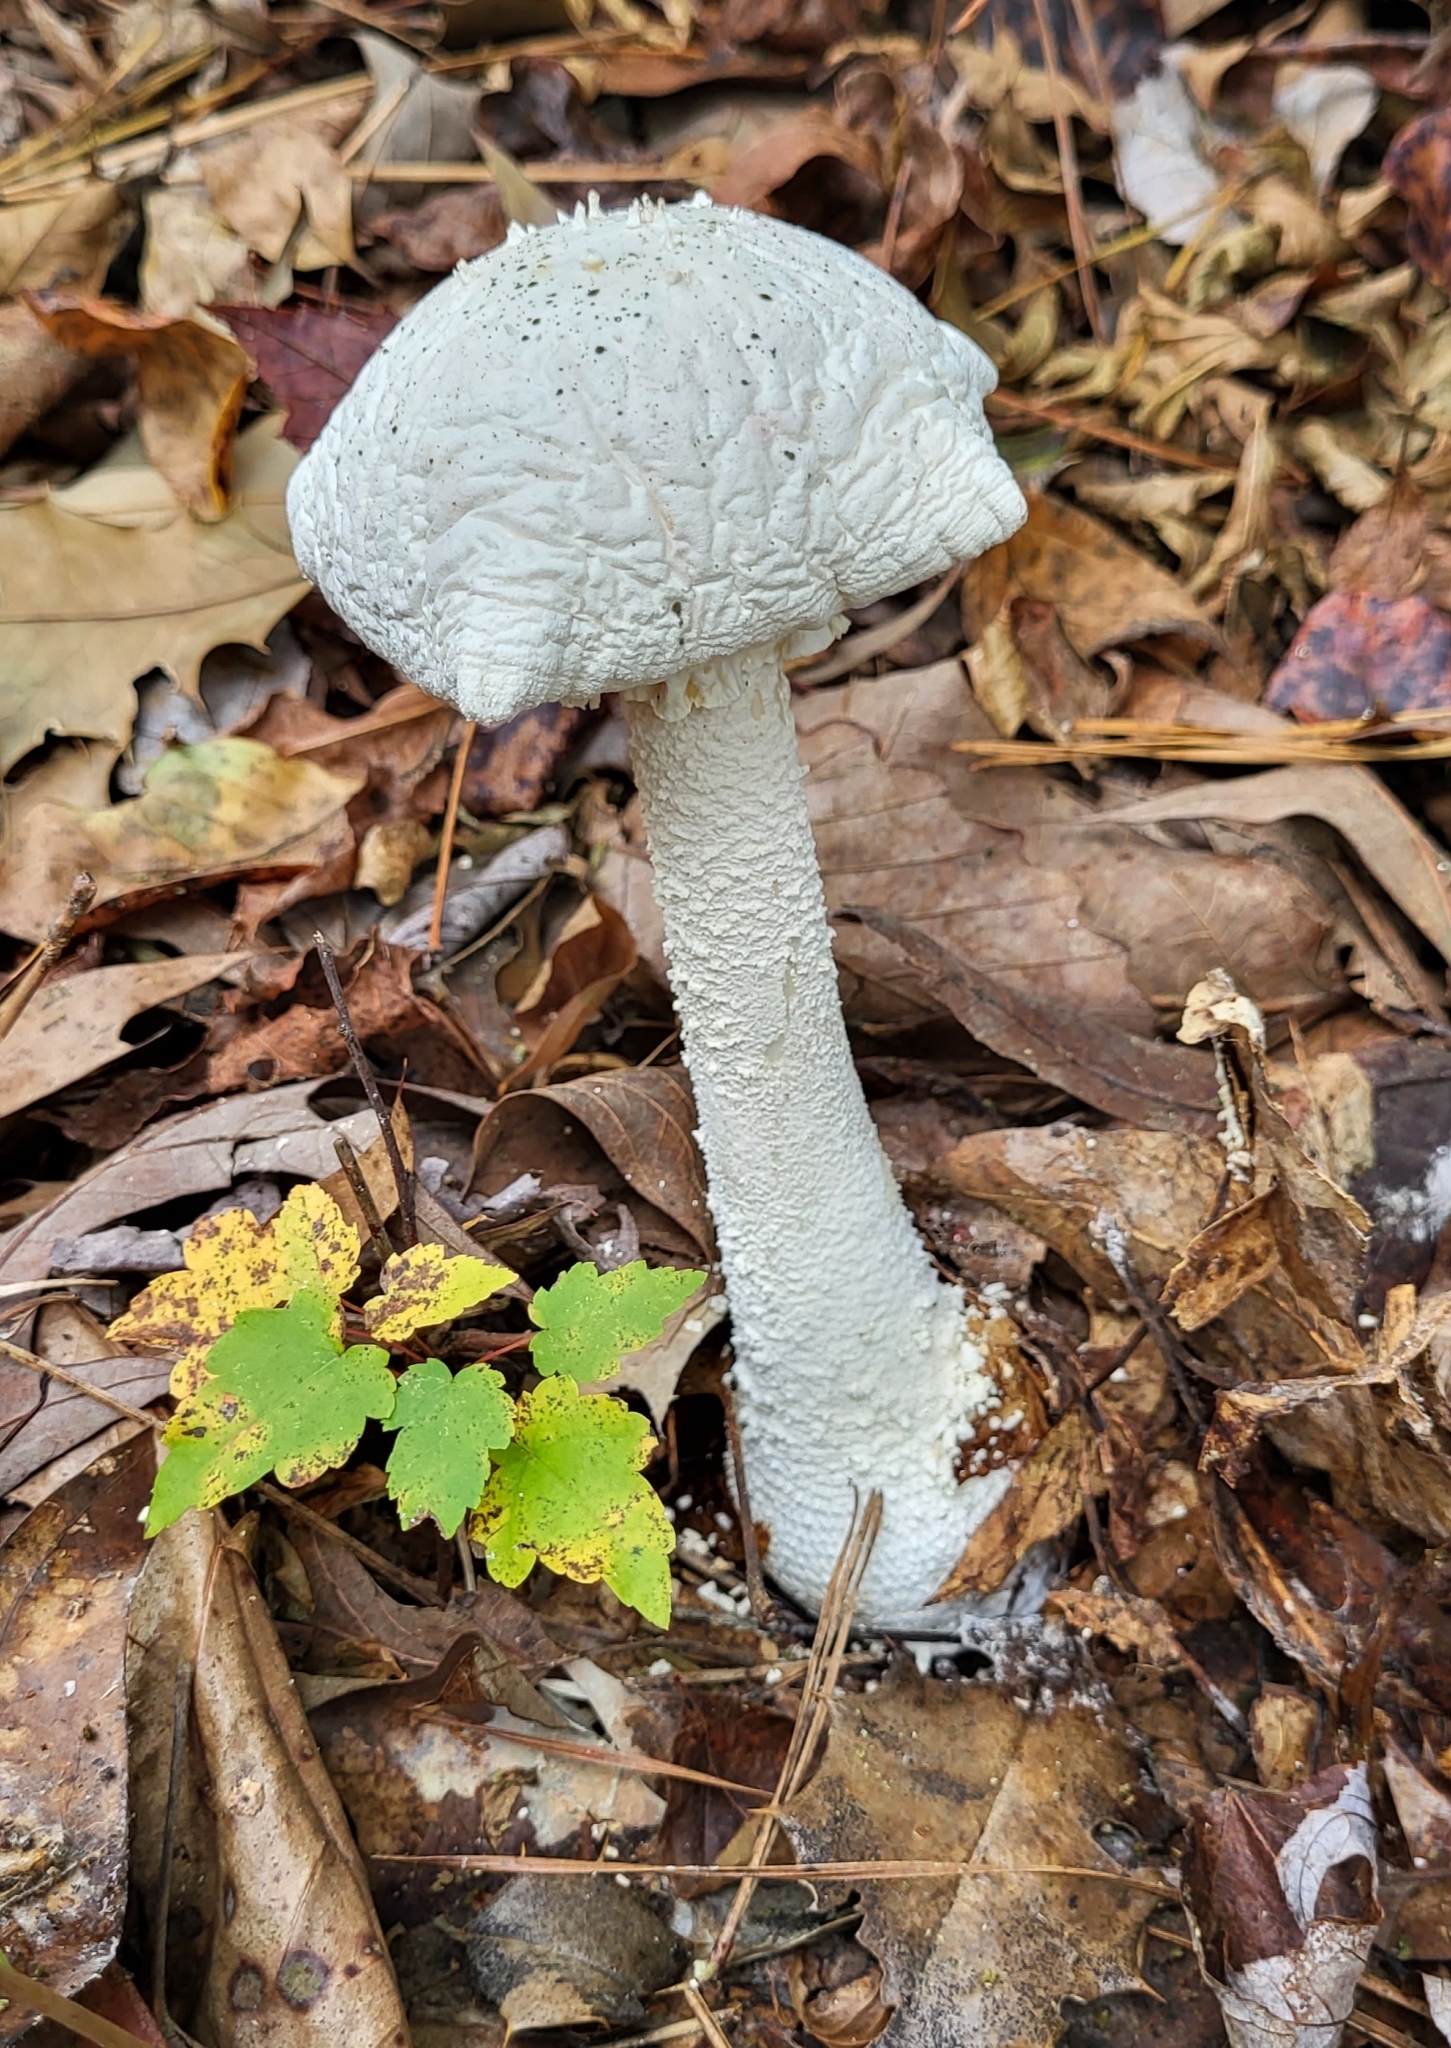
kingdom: Fungi
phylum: Basidiomycota
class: Agaricomycetes
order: Agaricales
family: Amanitaceae
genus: Amanita
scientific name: Amanita polypyramis
